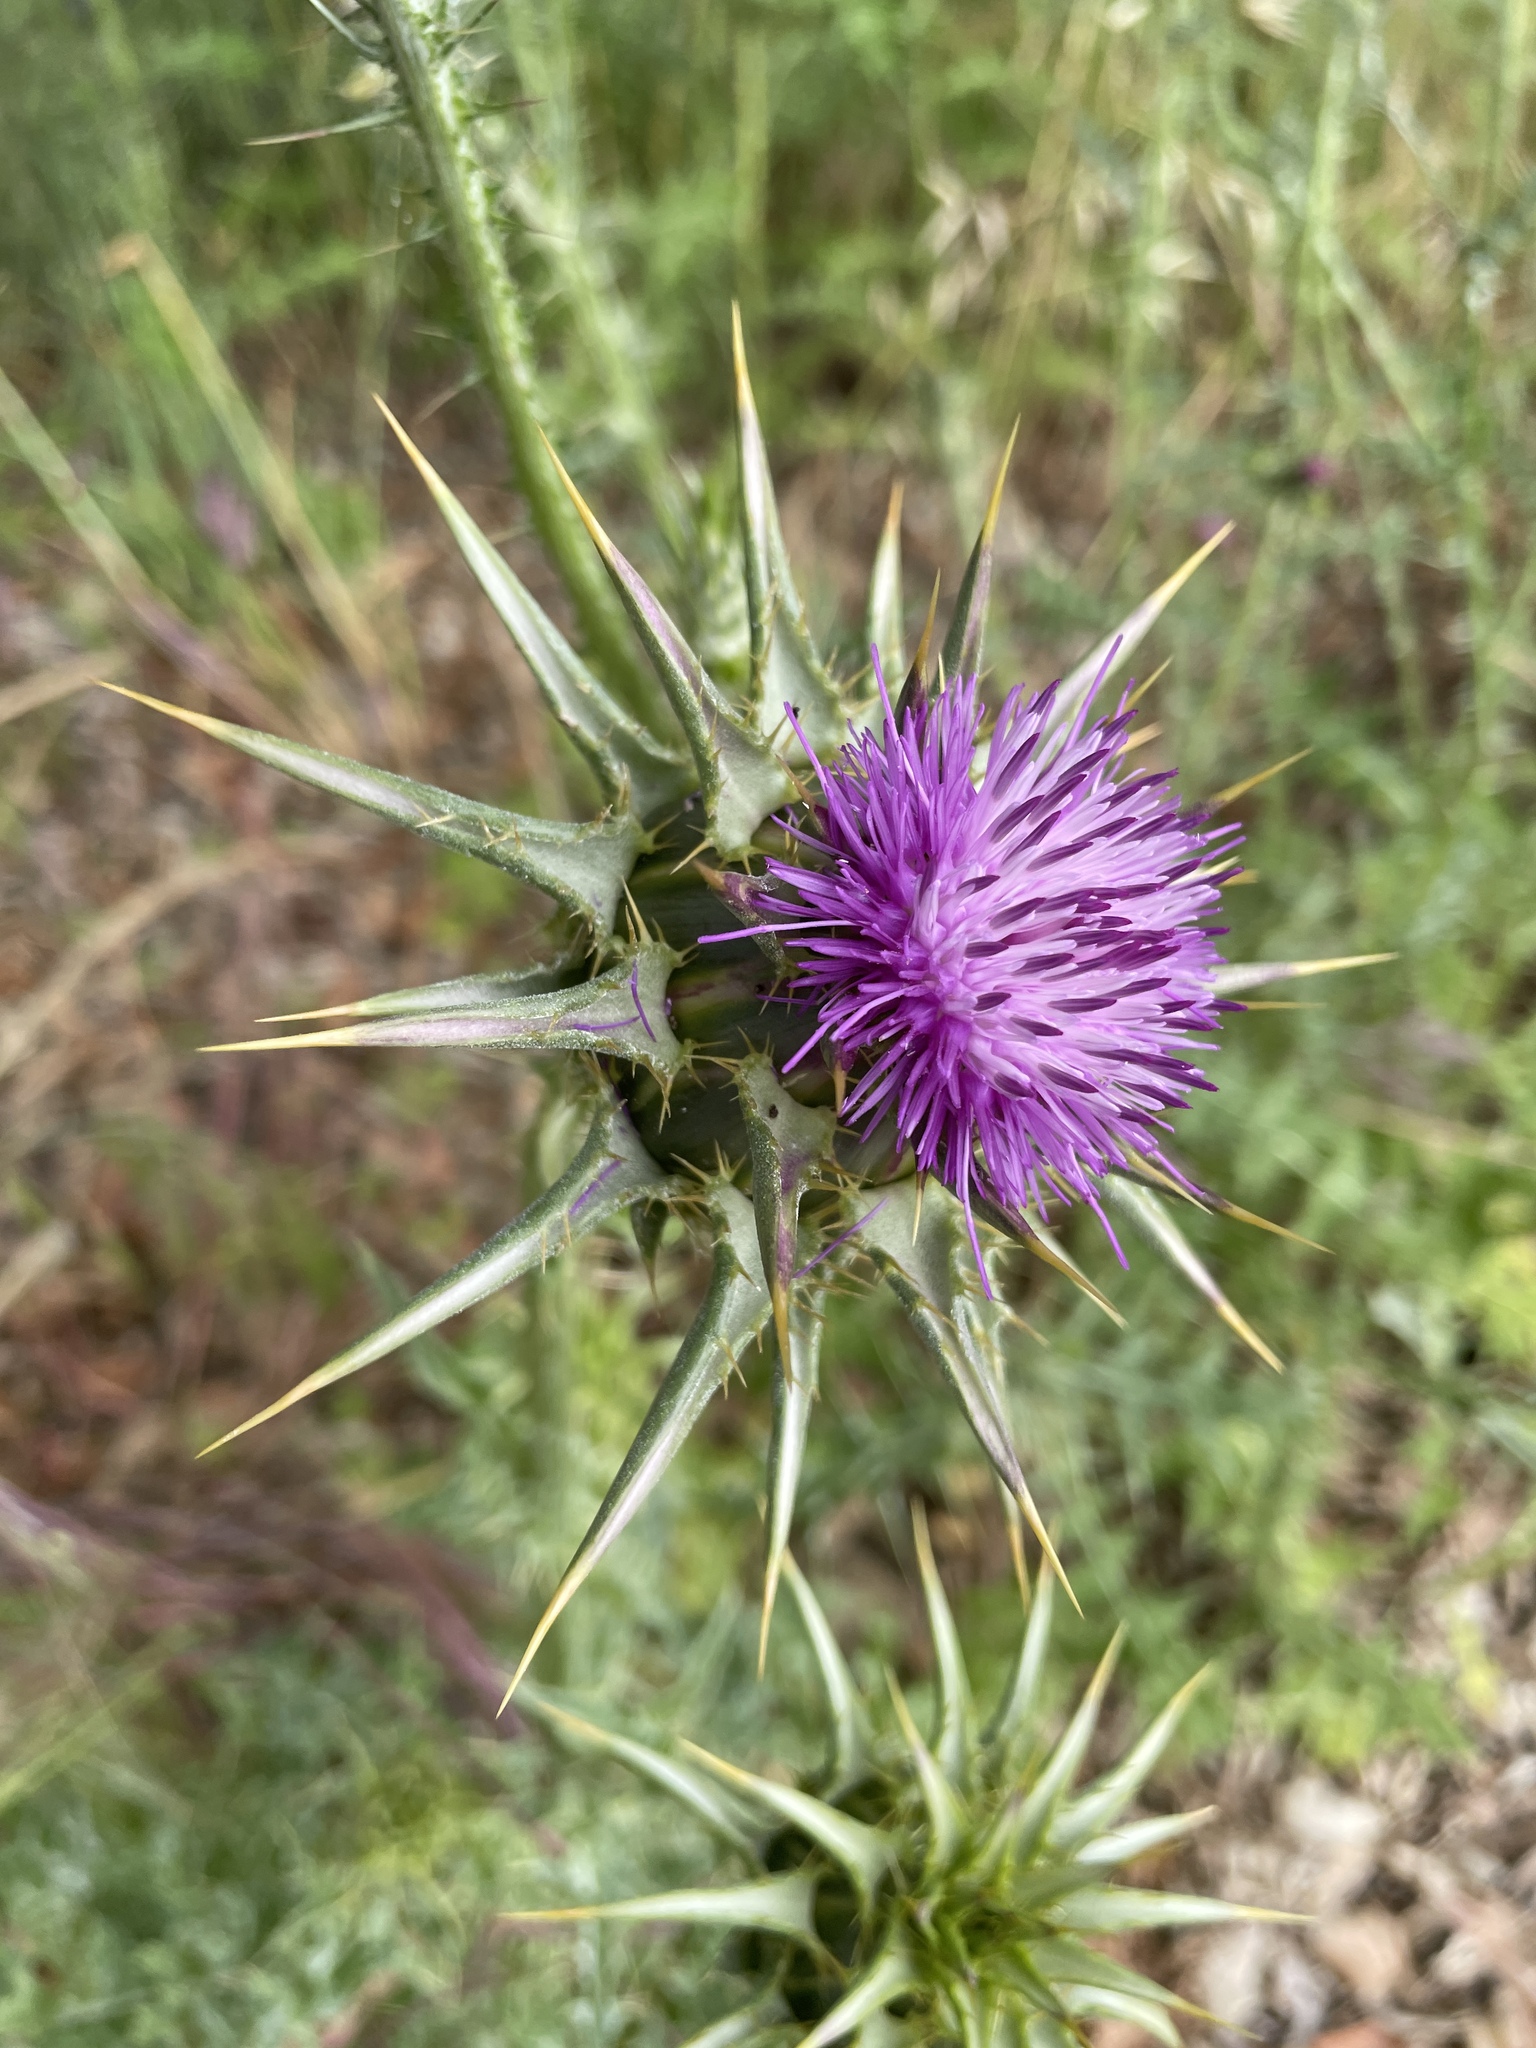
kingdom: Plantae
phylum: Tracheophyta
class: Magnoliopsida
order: Asterales
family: Asteraceae
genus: Silybum
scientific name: Silybum marianum
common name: Milk thistle
